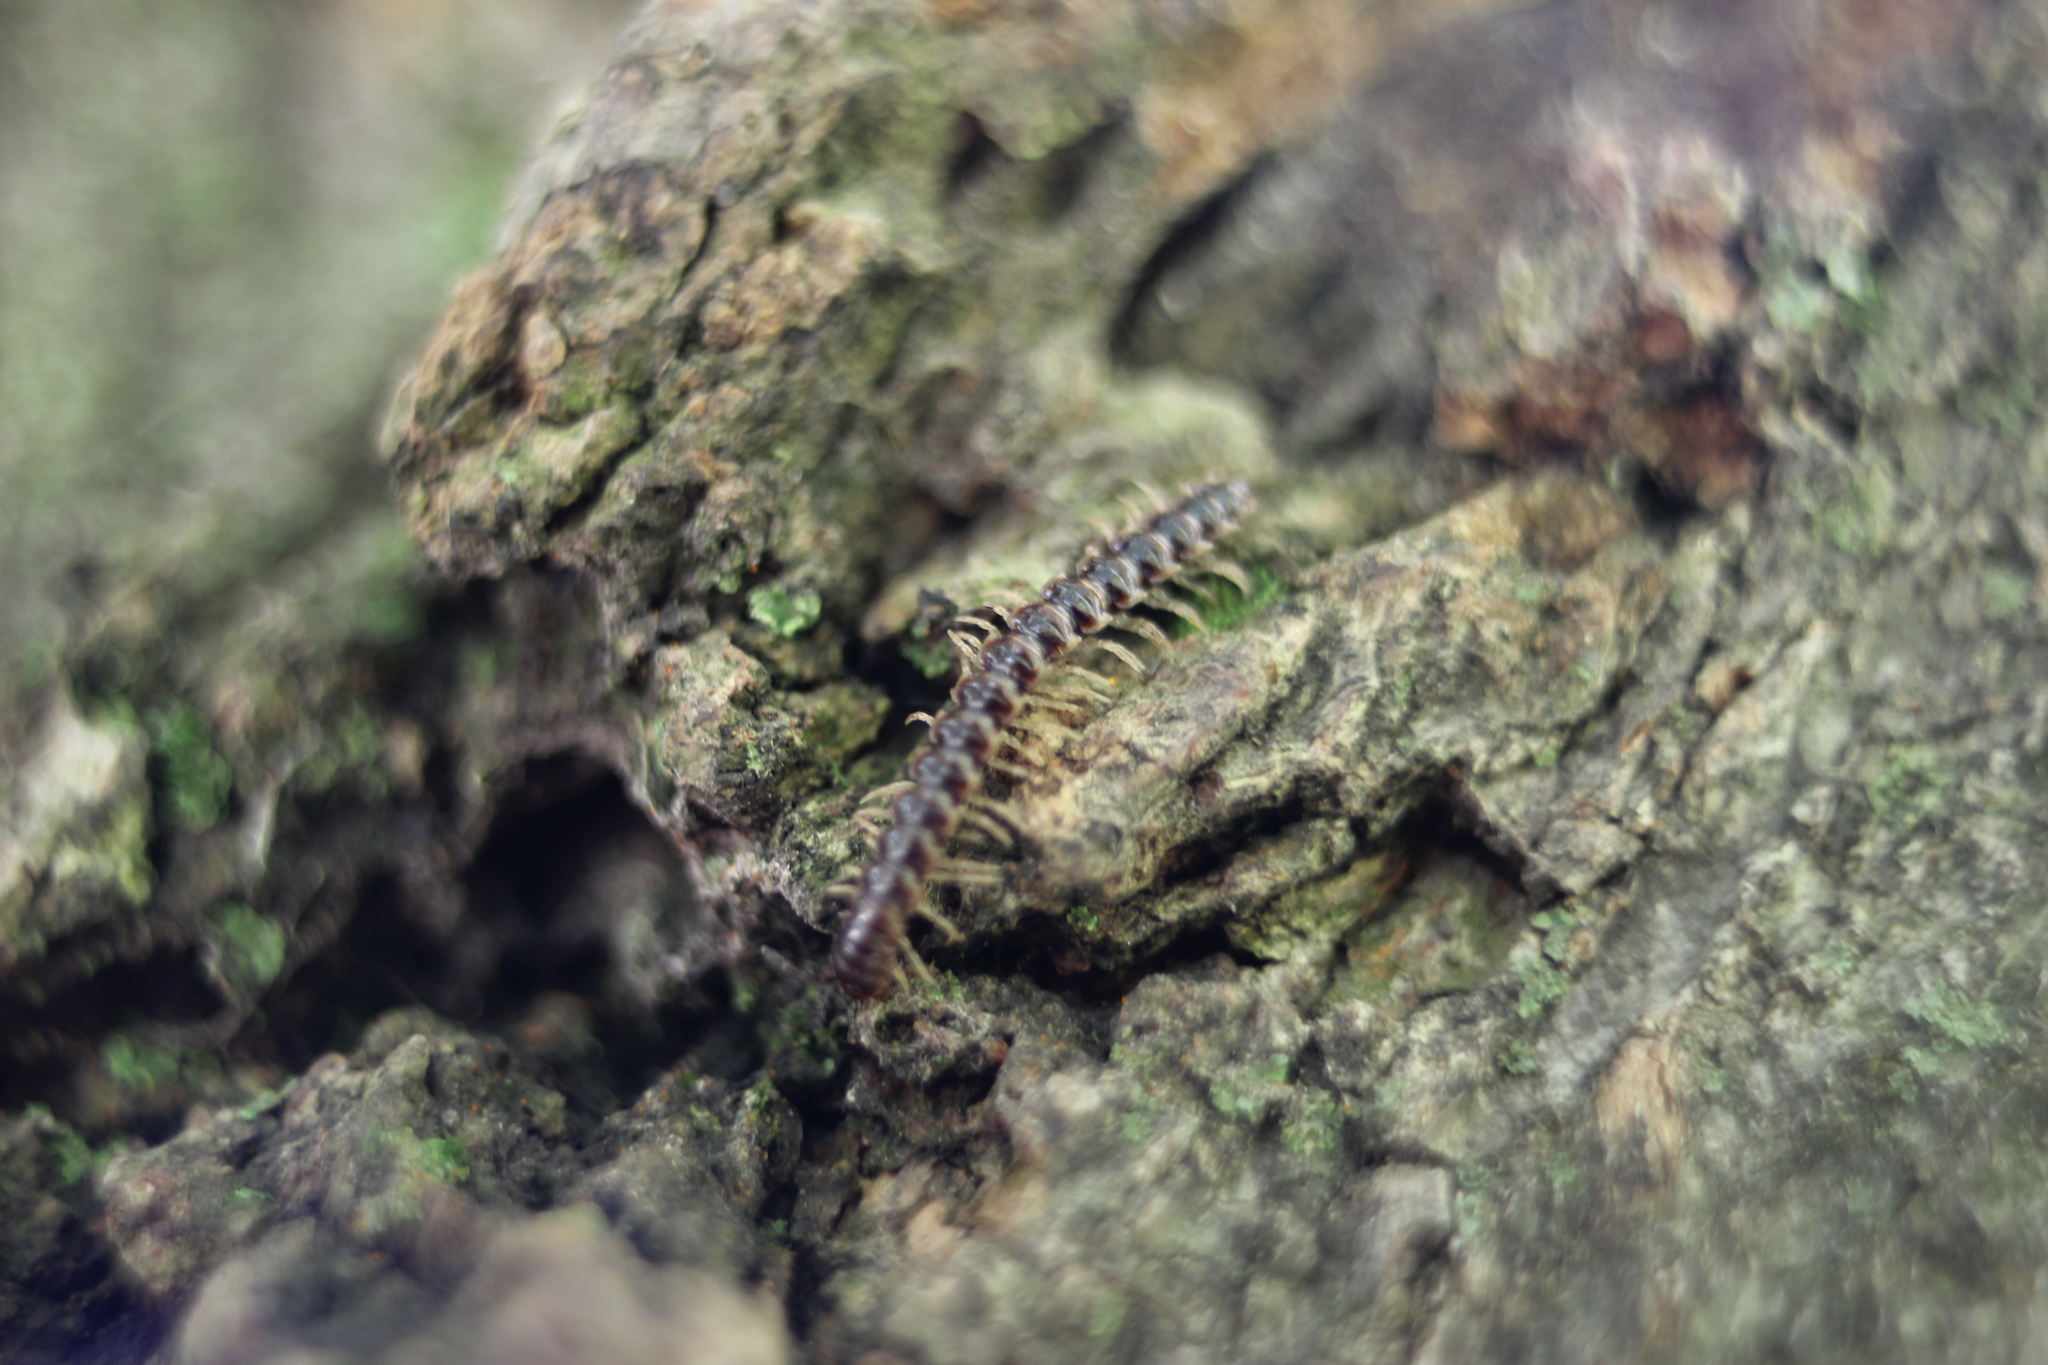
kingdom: Animalia
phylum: Arthropoda
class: Diplopoda
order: Polydesmida
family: Paradoxosomatidae
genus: Oxidus
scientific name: Oxidus gracilis
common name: Greenhouse millipede
